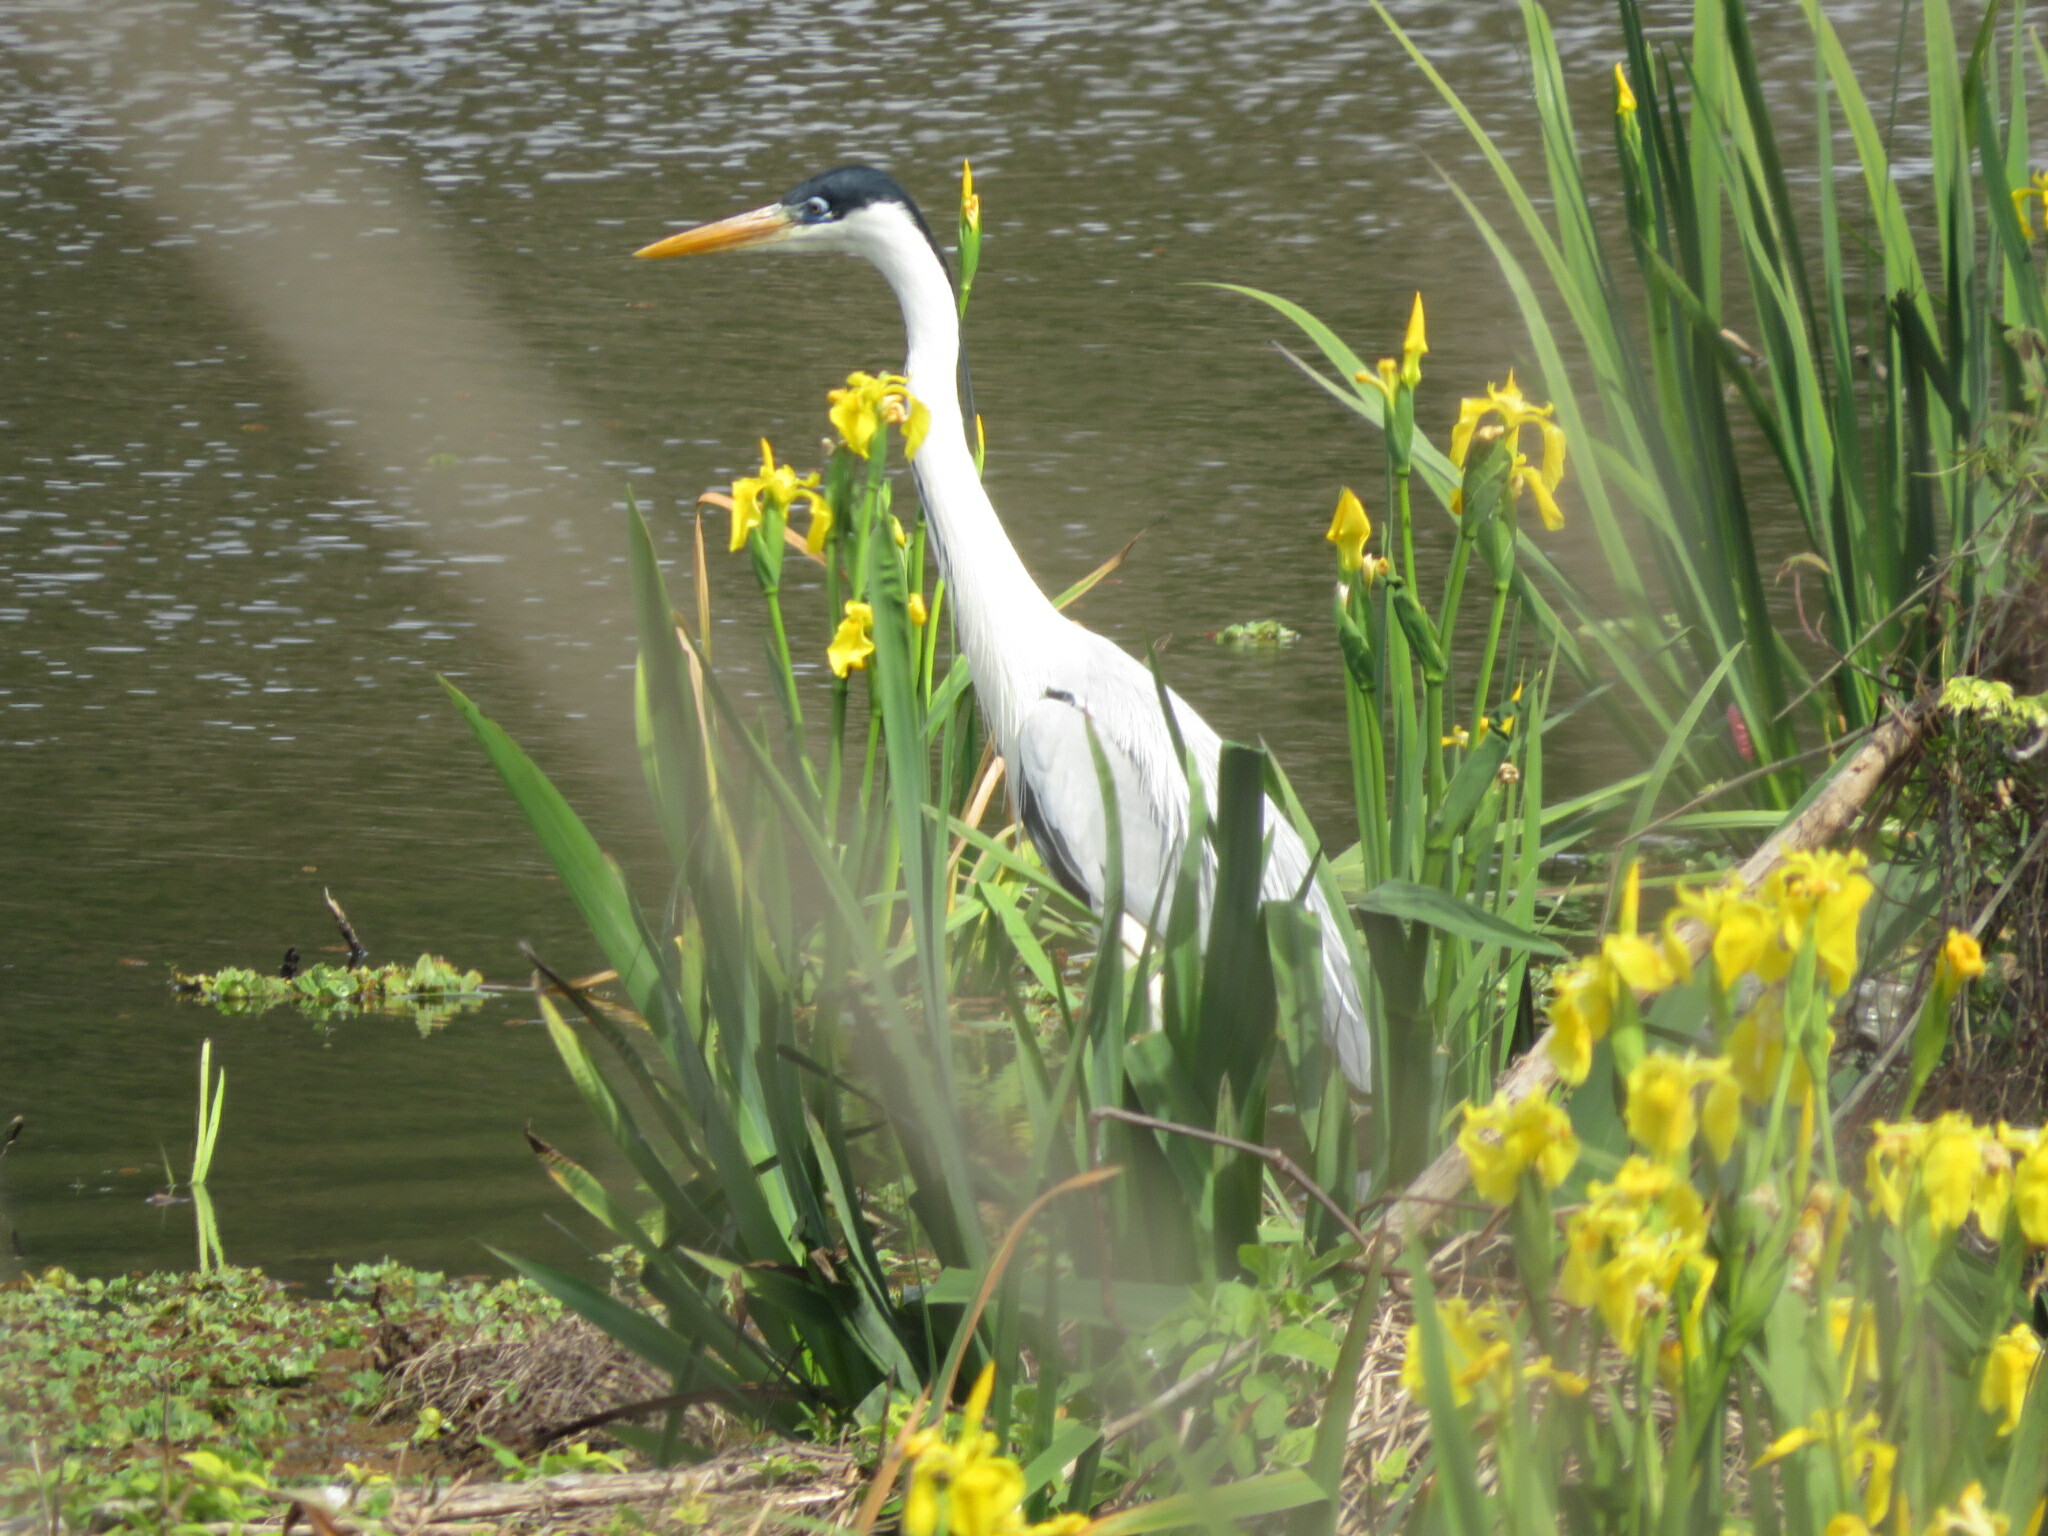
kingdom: Animalia
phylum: Chordata
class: Aves
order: Pelecaniformes
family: Ardeidae
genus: Ardea
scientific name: Ardea cocoi
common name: Cocoi heron
